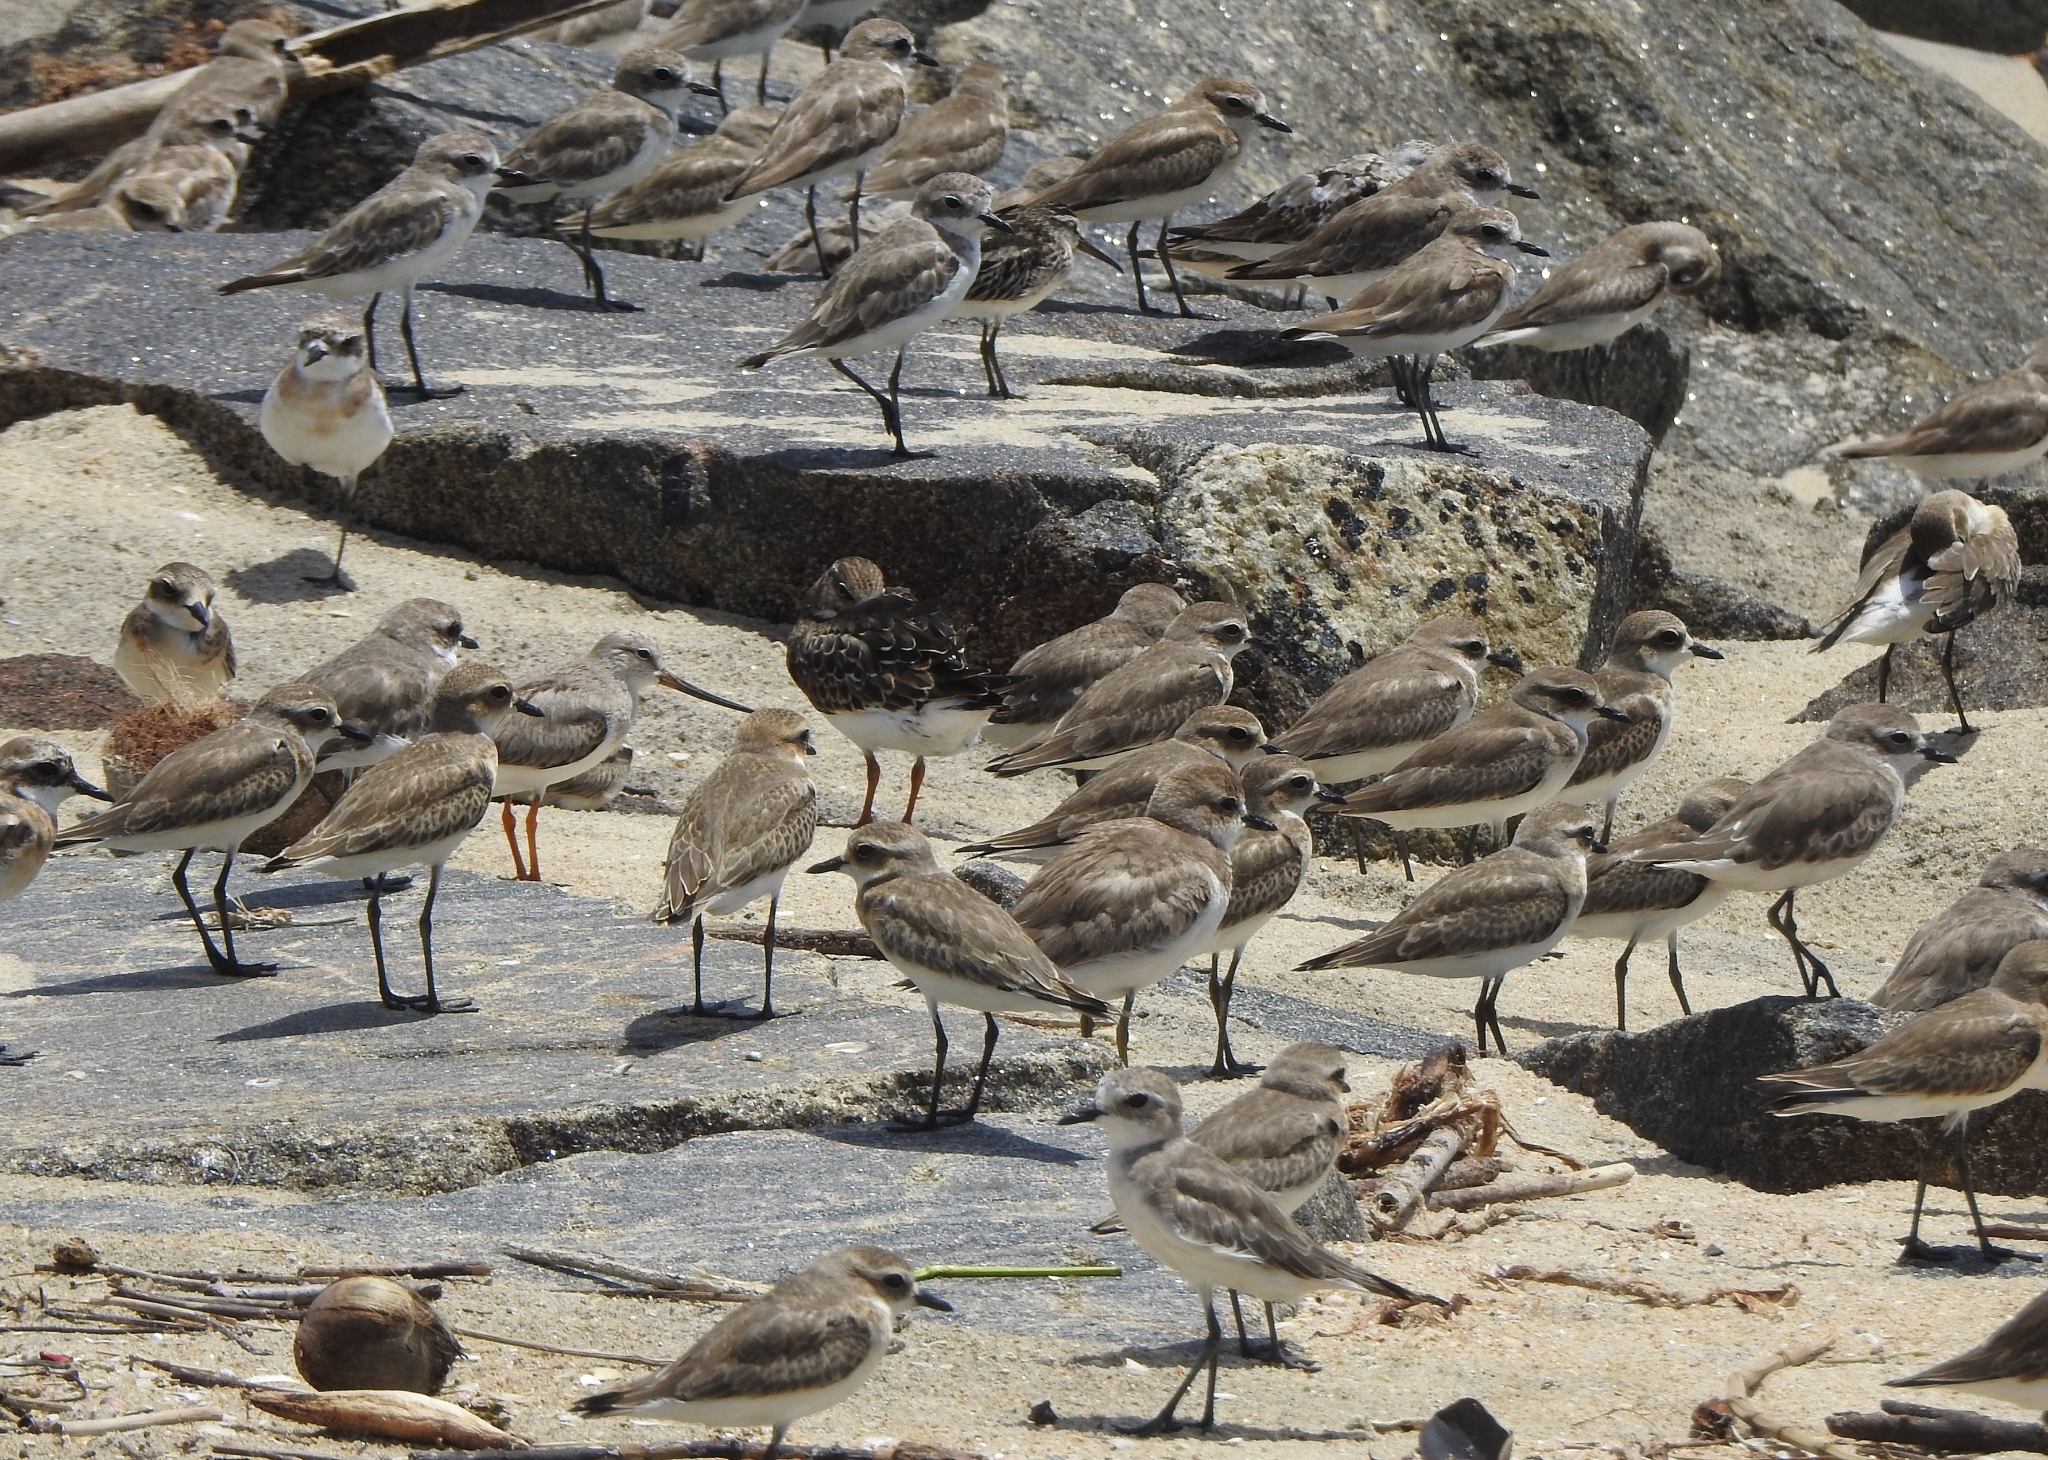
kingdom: Animalia
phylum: Chordata
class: Aves
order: Charadriiformes
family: Charadriidae
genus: Anarhynchus
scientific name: Anarhynchus
